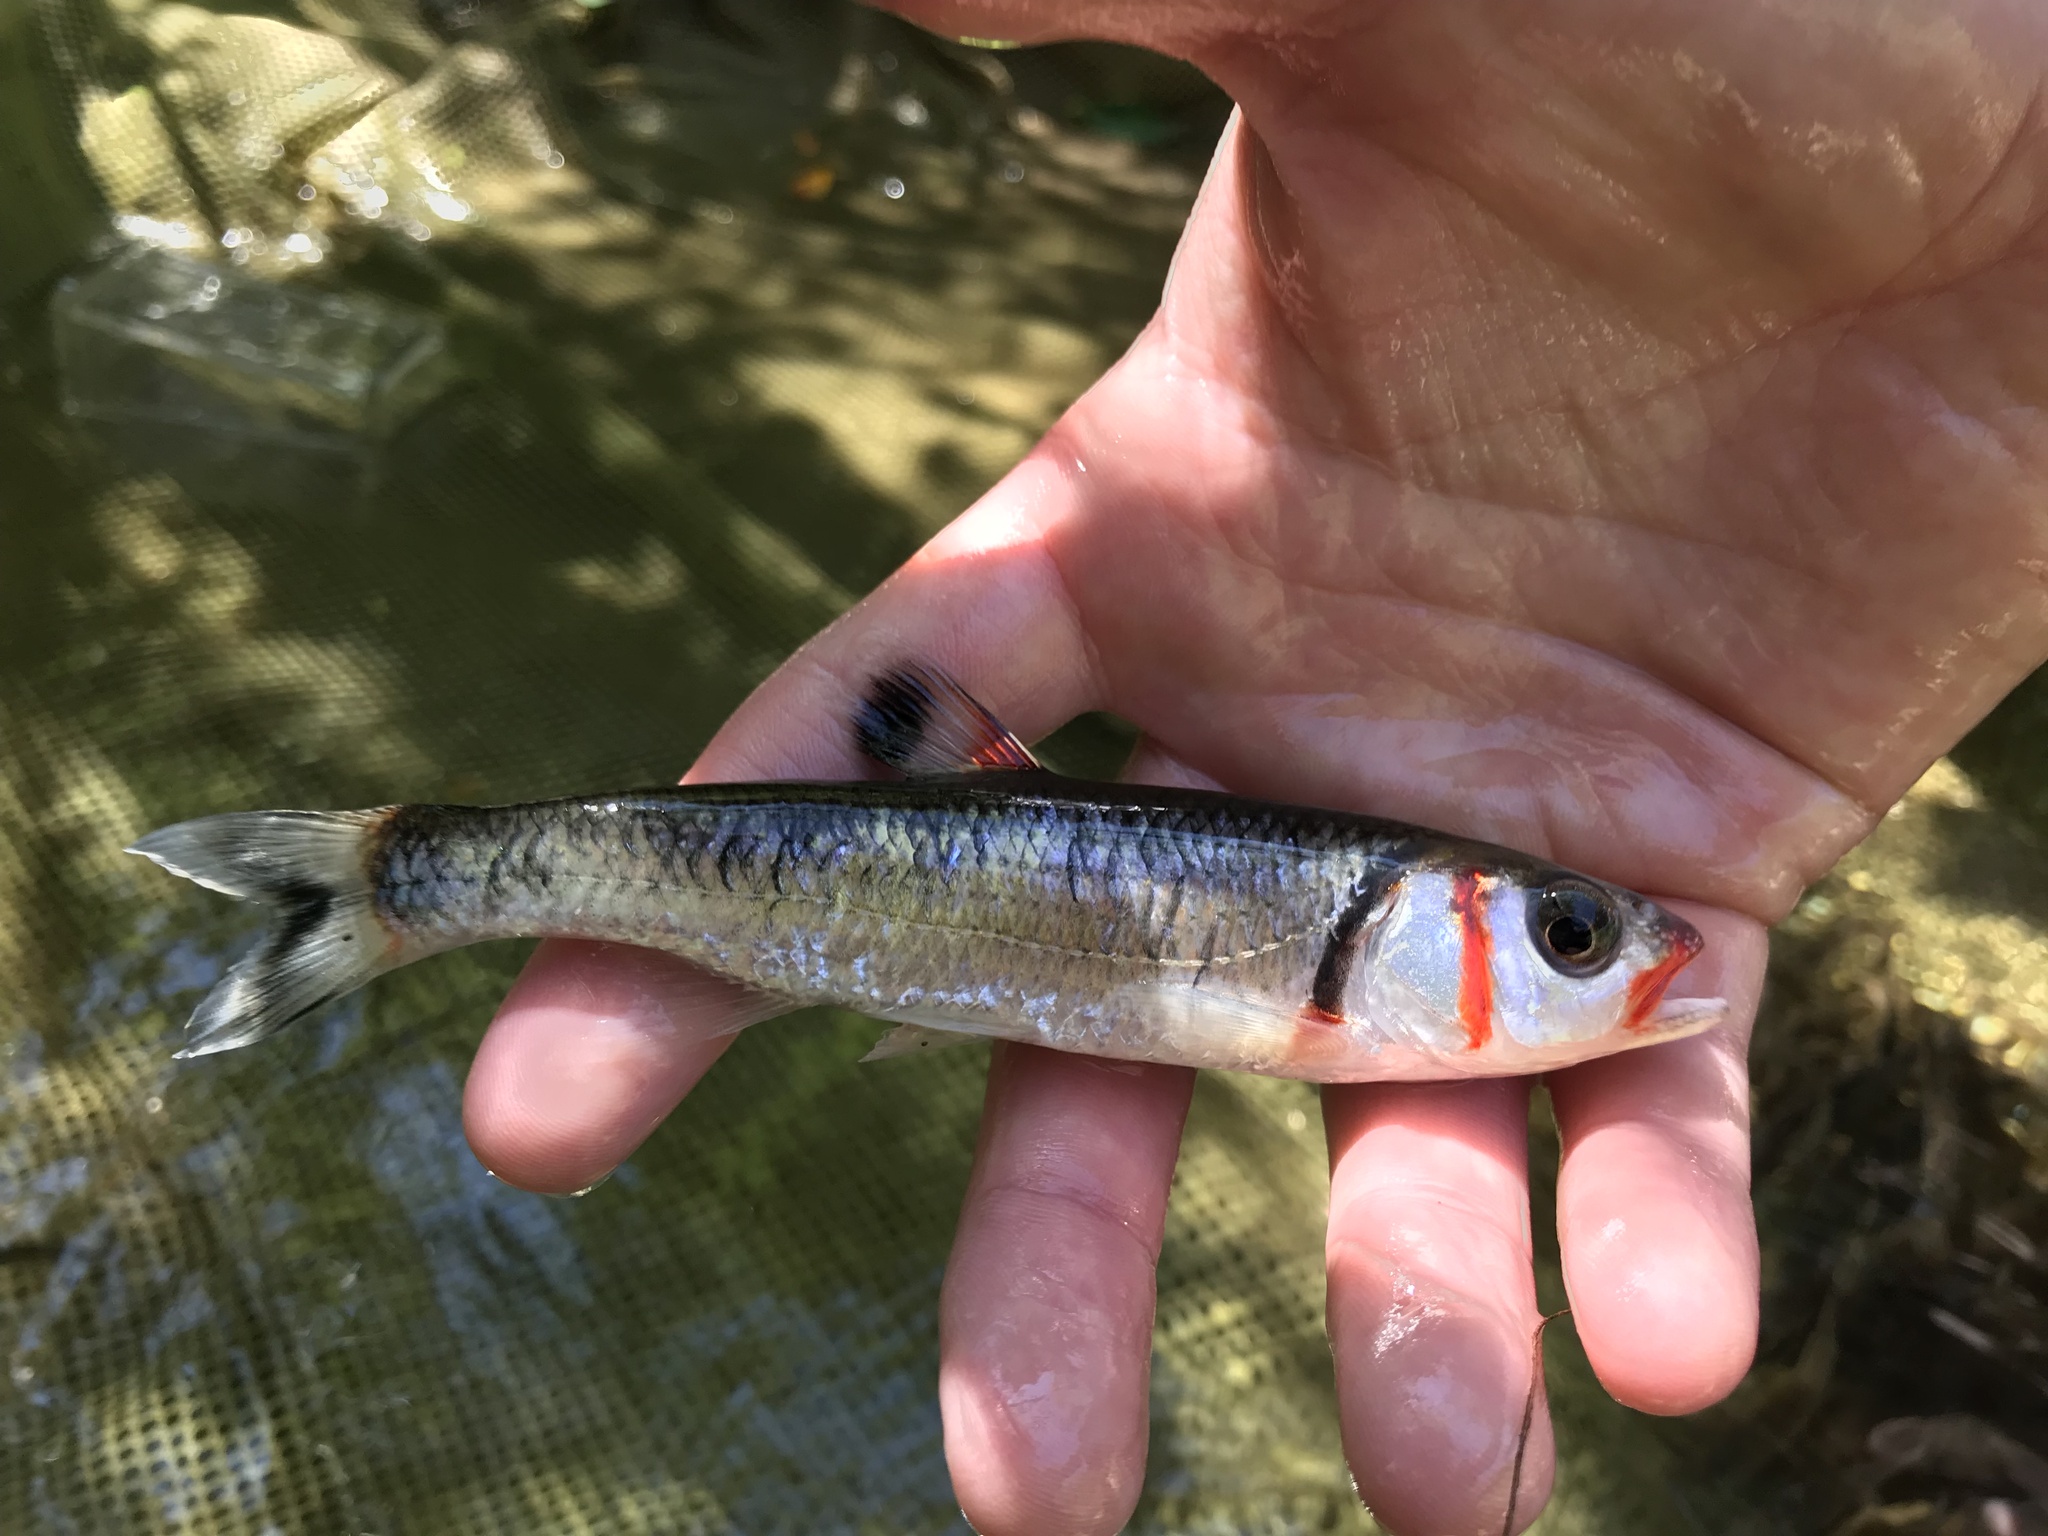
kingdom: Animalia
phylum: Chordata
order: Cypriniformes
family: Cyprinidae
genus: Luxilus
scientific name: Luxilus
